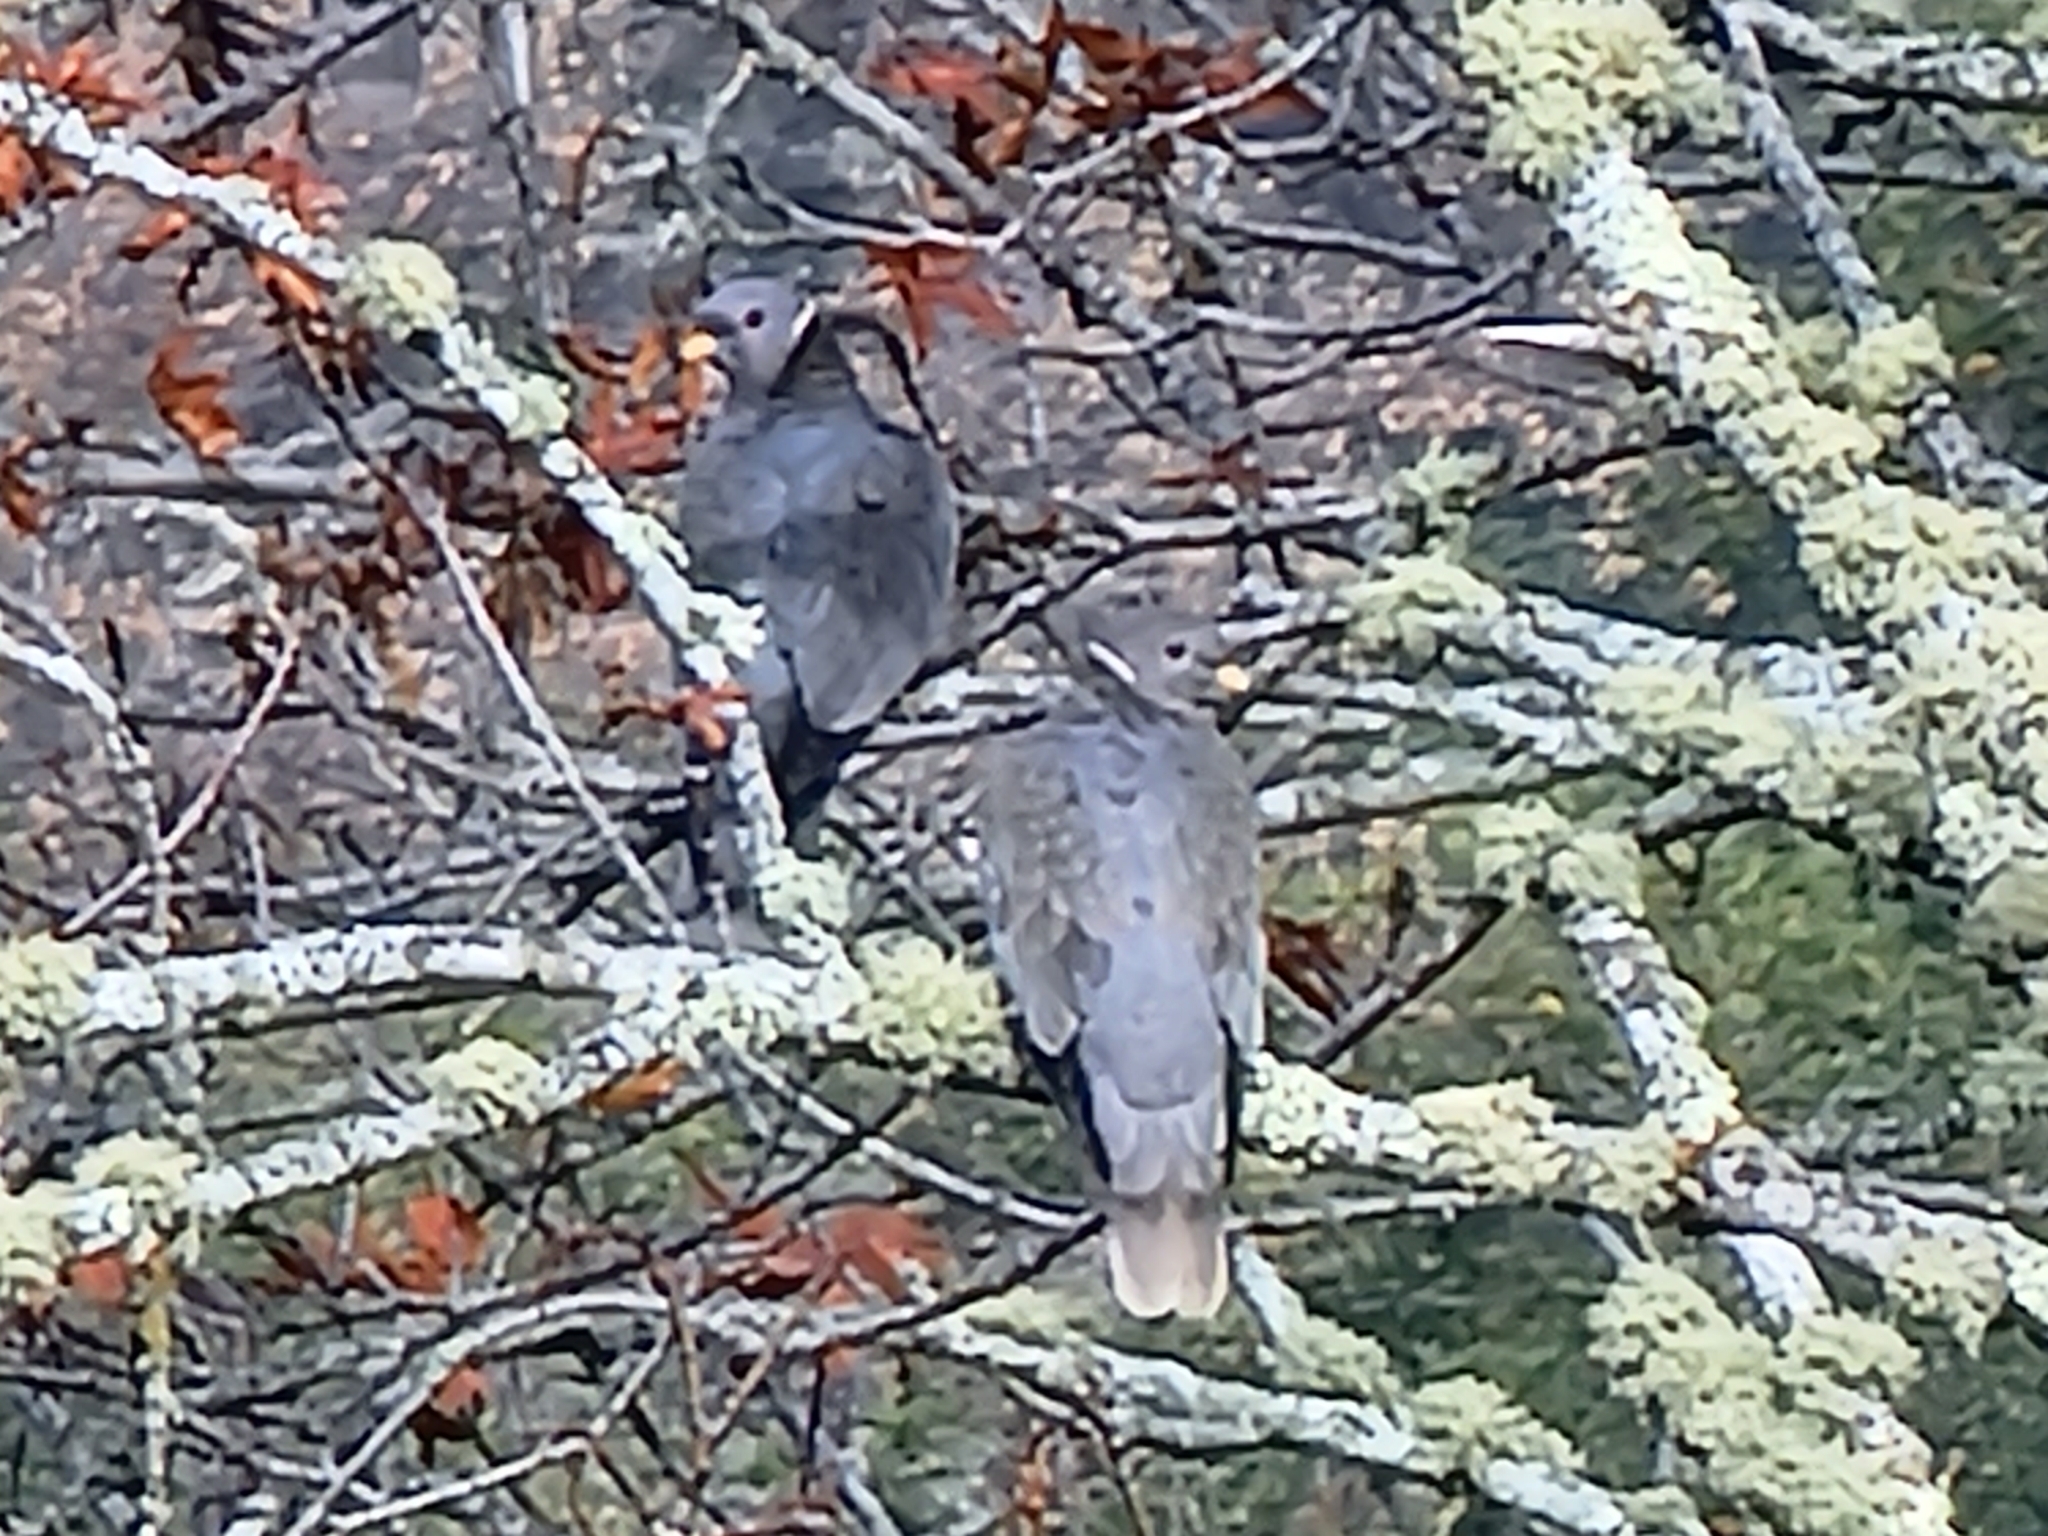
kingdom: Animalia
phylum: Chordata
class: Aves
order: Columbiformes
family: Columbidae
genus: Patagioenas
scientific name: Patagioenas fasciata
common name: Band-tailed pigeon
